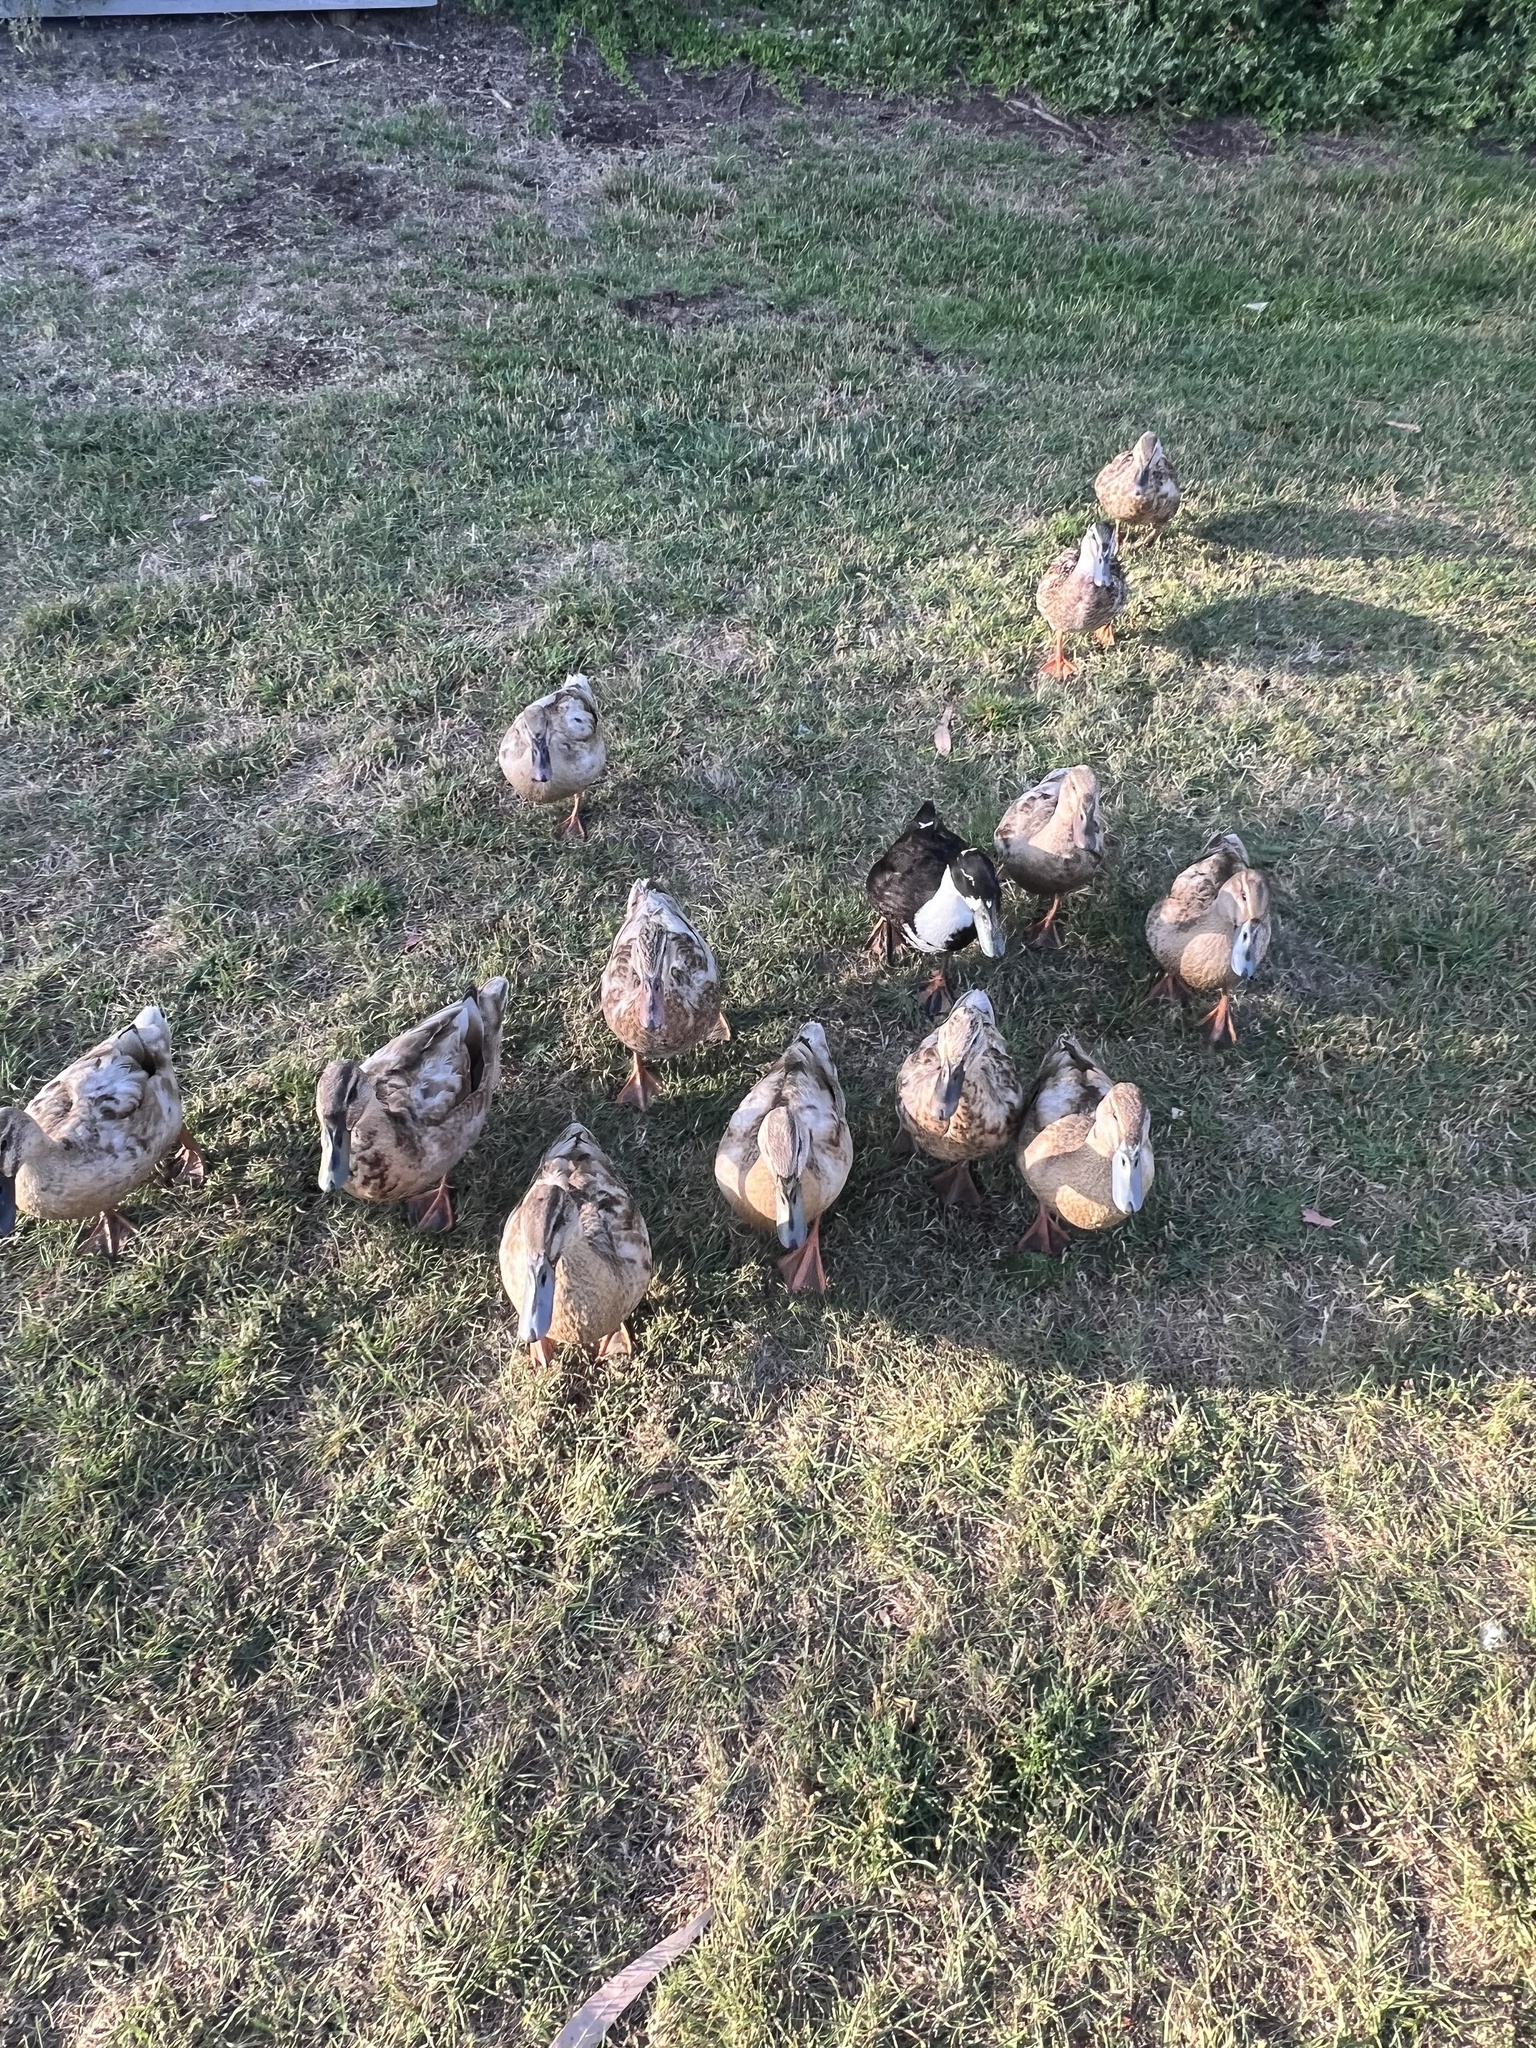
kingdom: Animalia
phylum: Chordata
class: Aves
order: Anseriformes
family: Anatidae
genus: Anas
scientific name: Anas platyrhynchos
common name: Mallard
